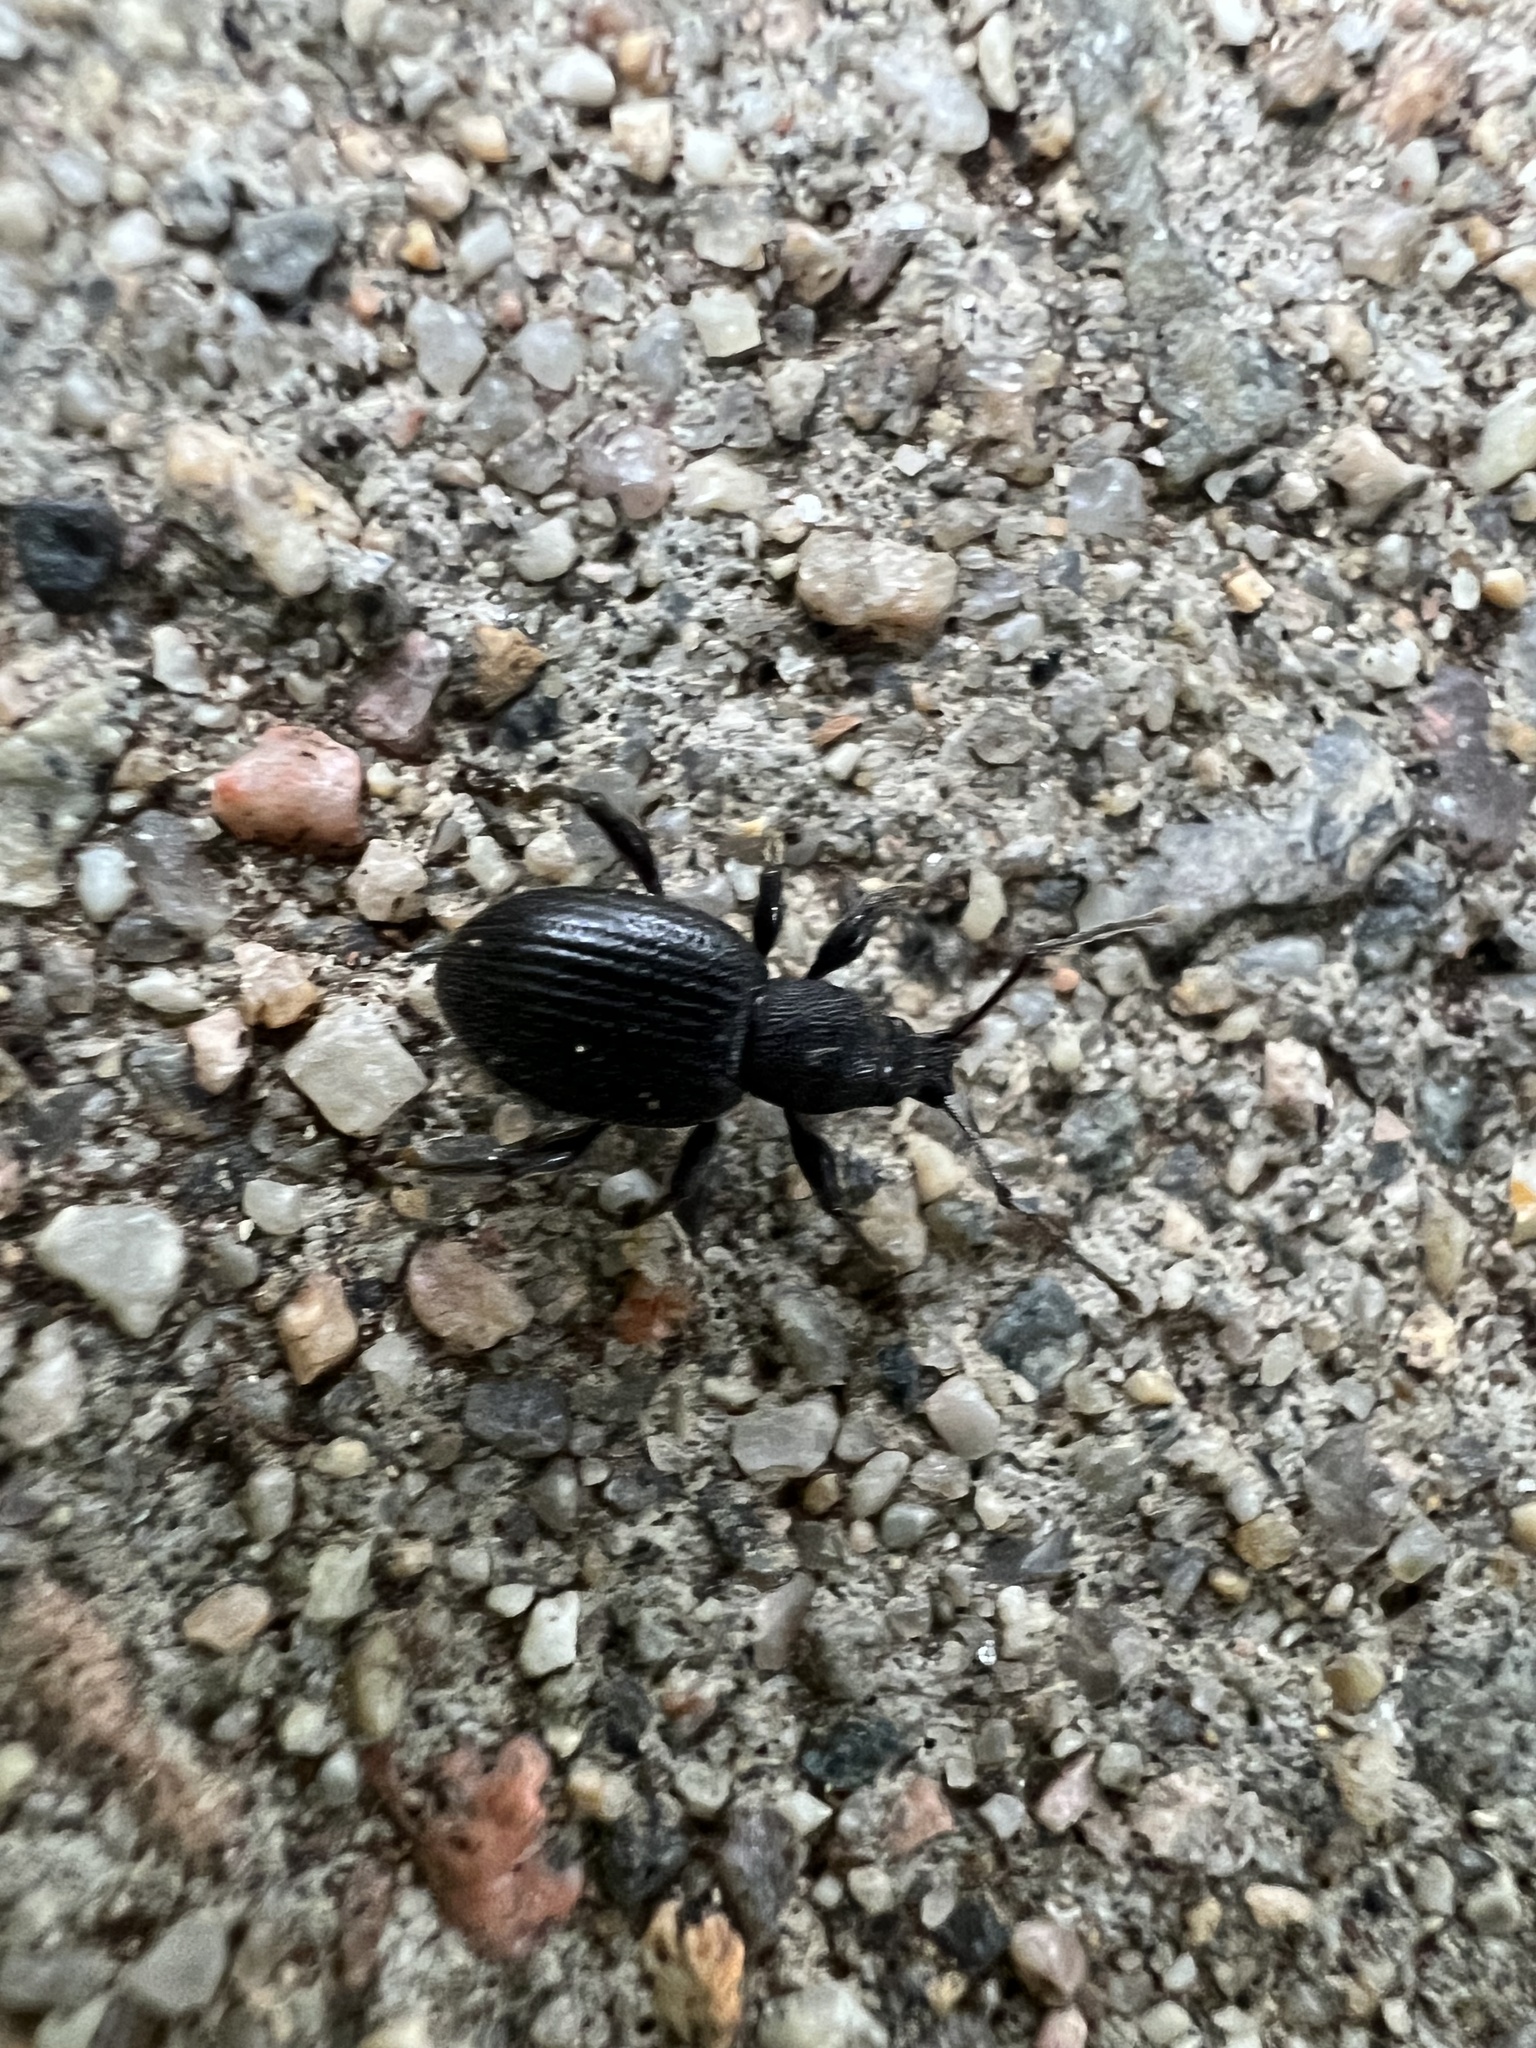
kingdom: Animalia
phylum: Arthropoda
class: Insecta
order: Coleoptera
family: Curculionidae
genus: Otiorhynchus
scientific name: Otiorhynchus meridionalis
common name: Weevil
